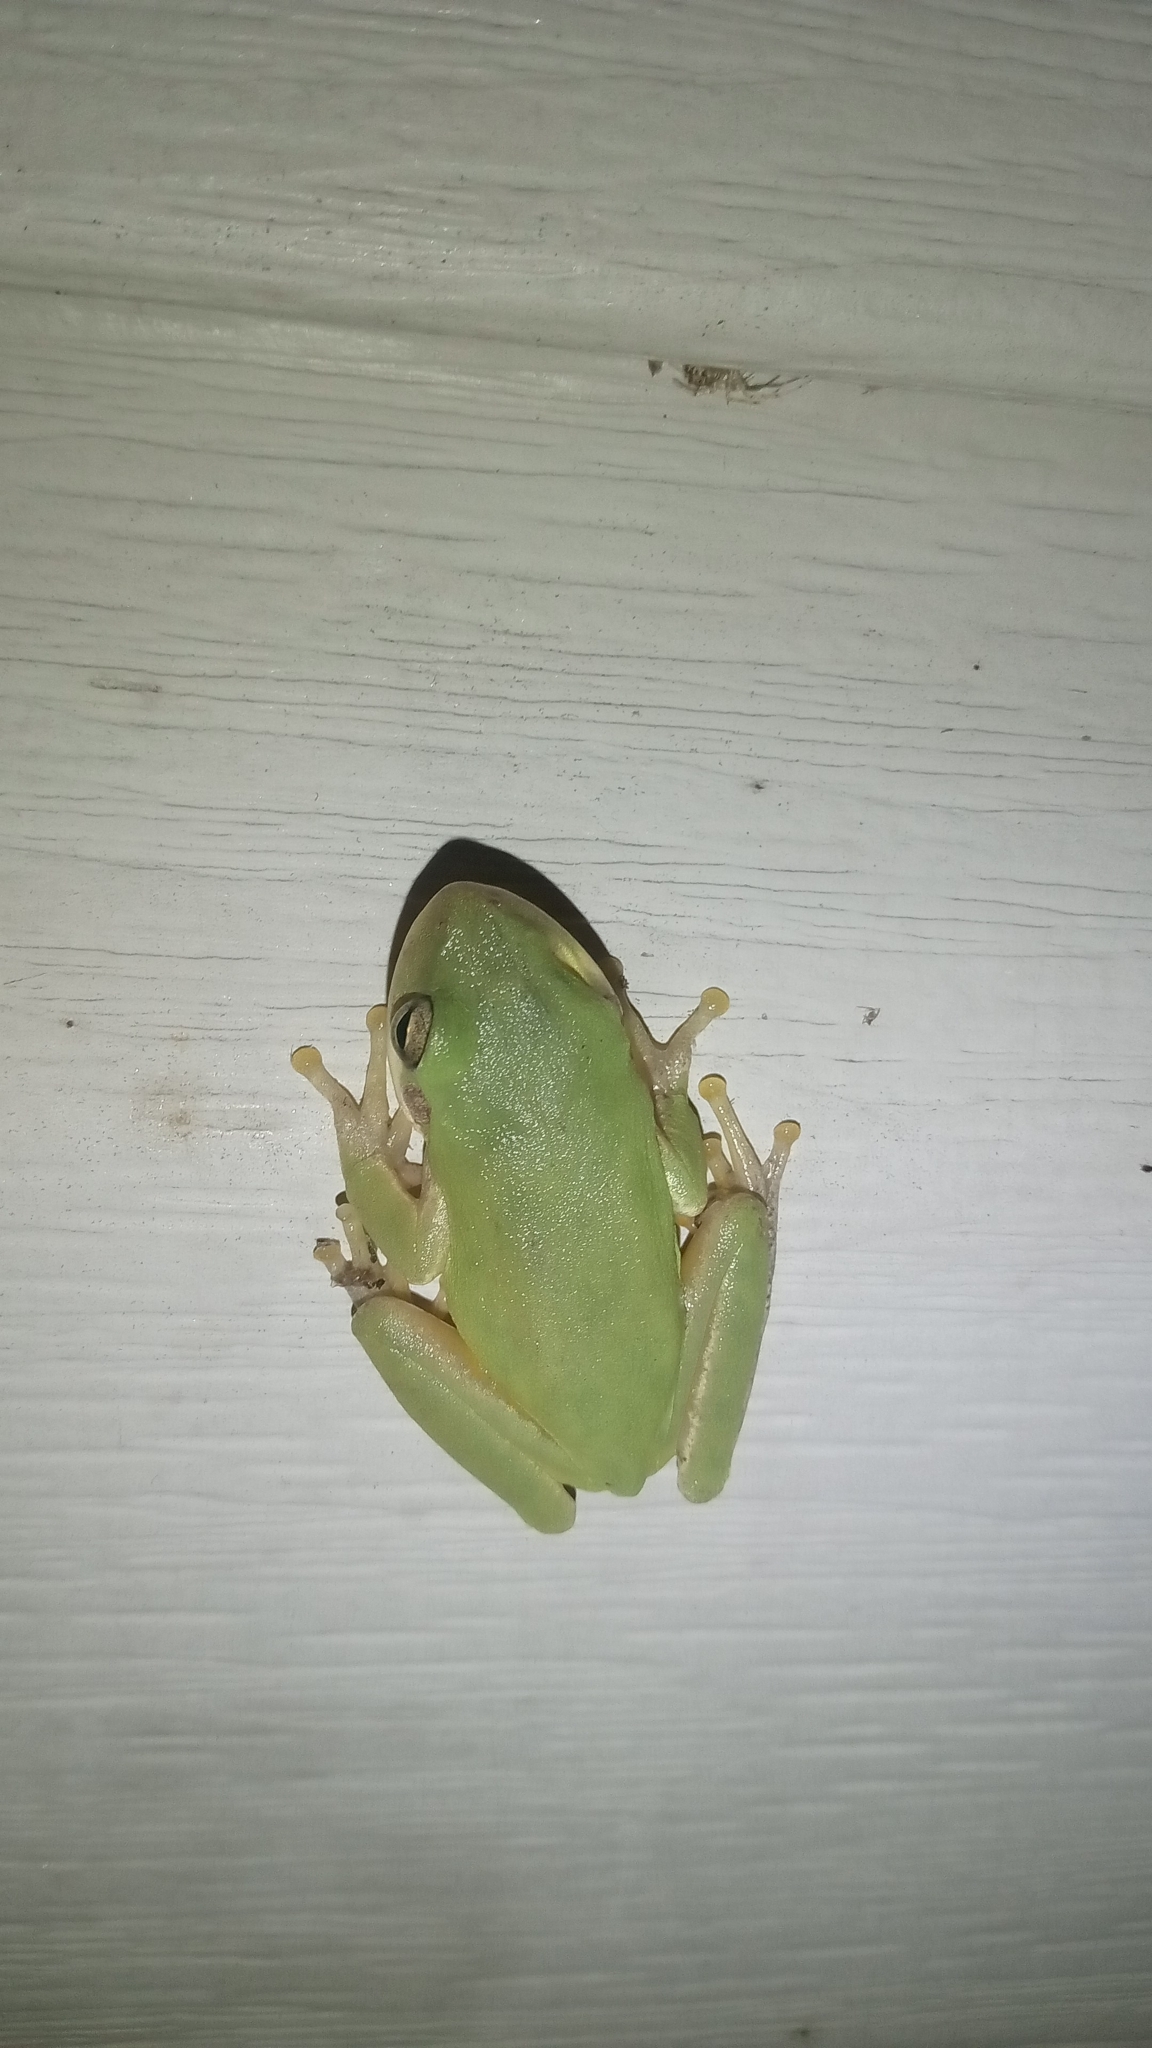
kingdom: Animalia
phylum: Chordata
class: Amphibia
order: Anura
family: Hylidae
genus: Dryophytes
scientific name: Dryophytes squirellus
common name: Squirrel treefrog
